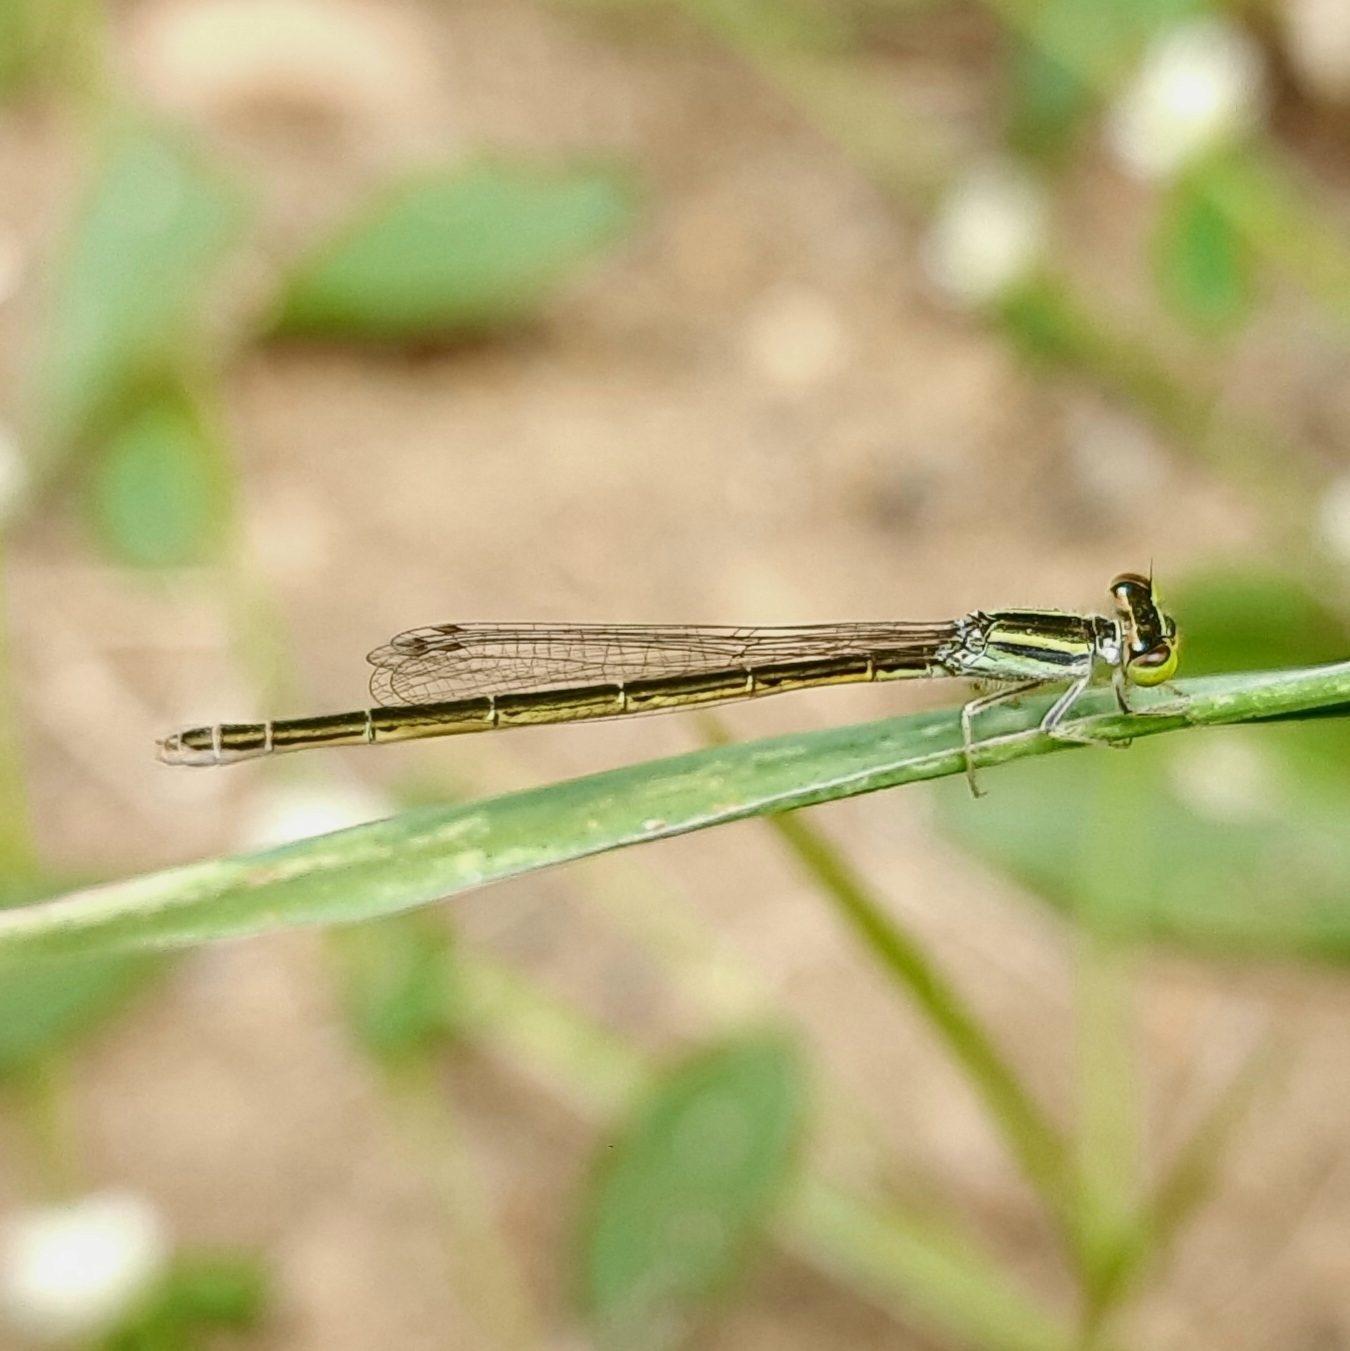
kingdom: Animalia
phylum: Arthropoda
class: Insecta
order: Odonata
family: Coenagrionidae
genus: Ischnura
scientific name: Ischnura rubilio
